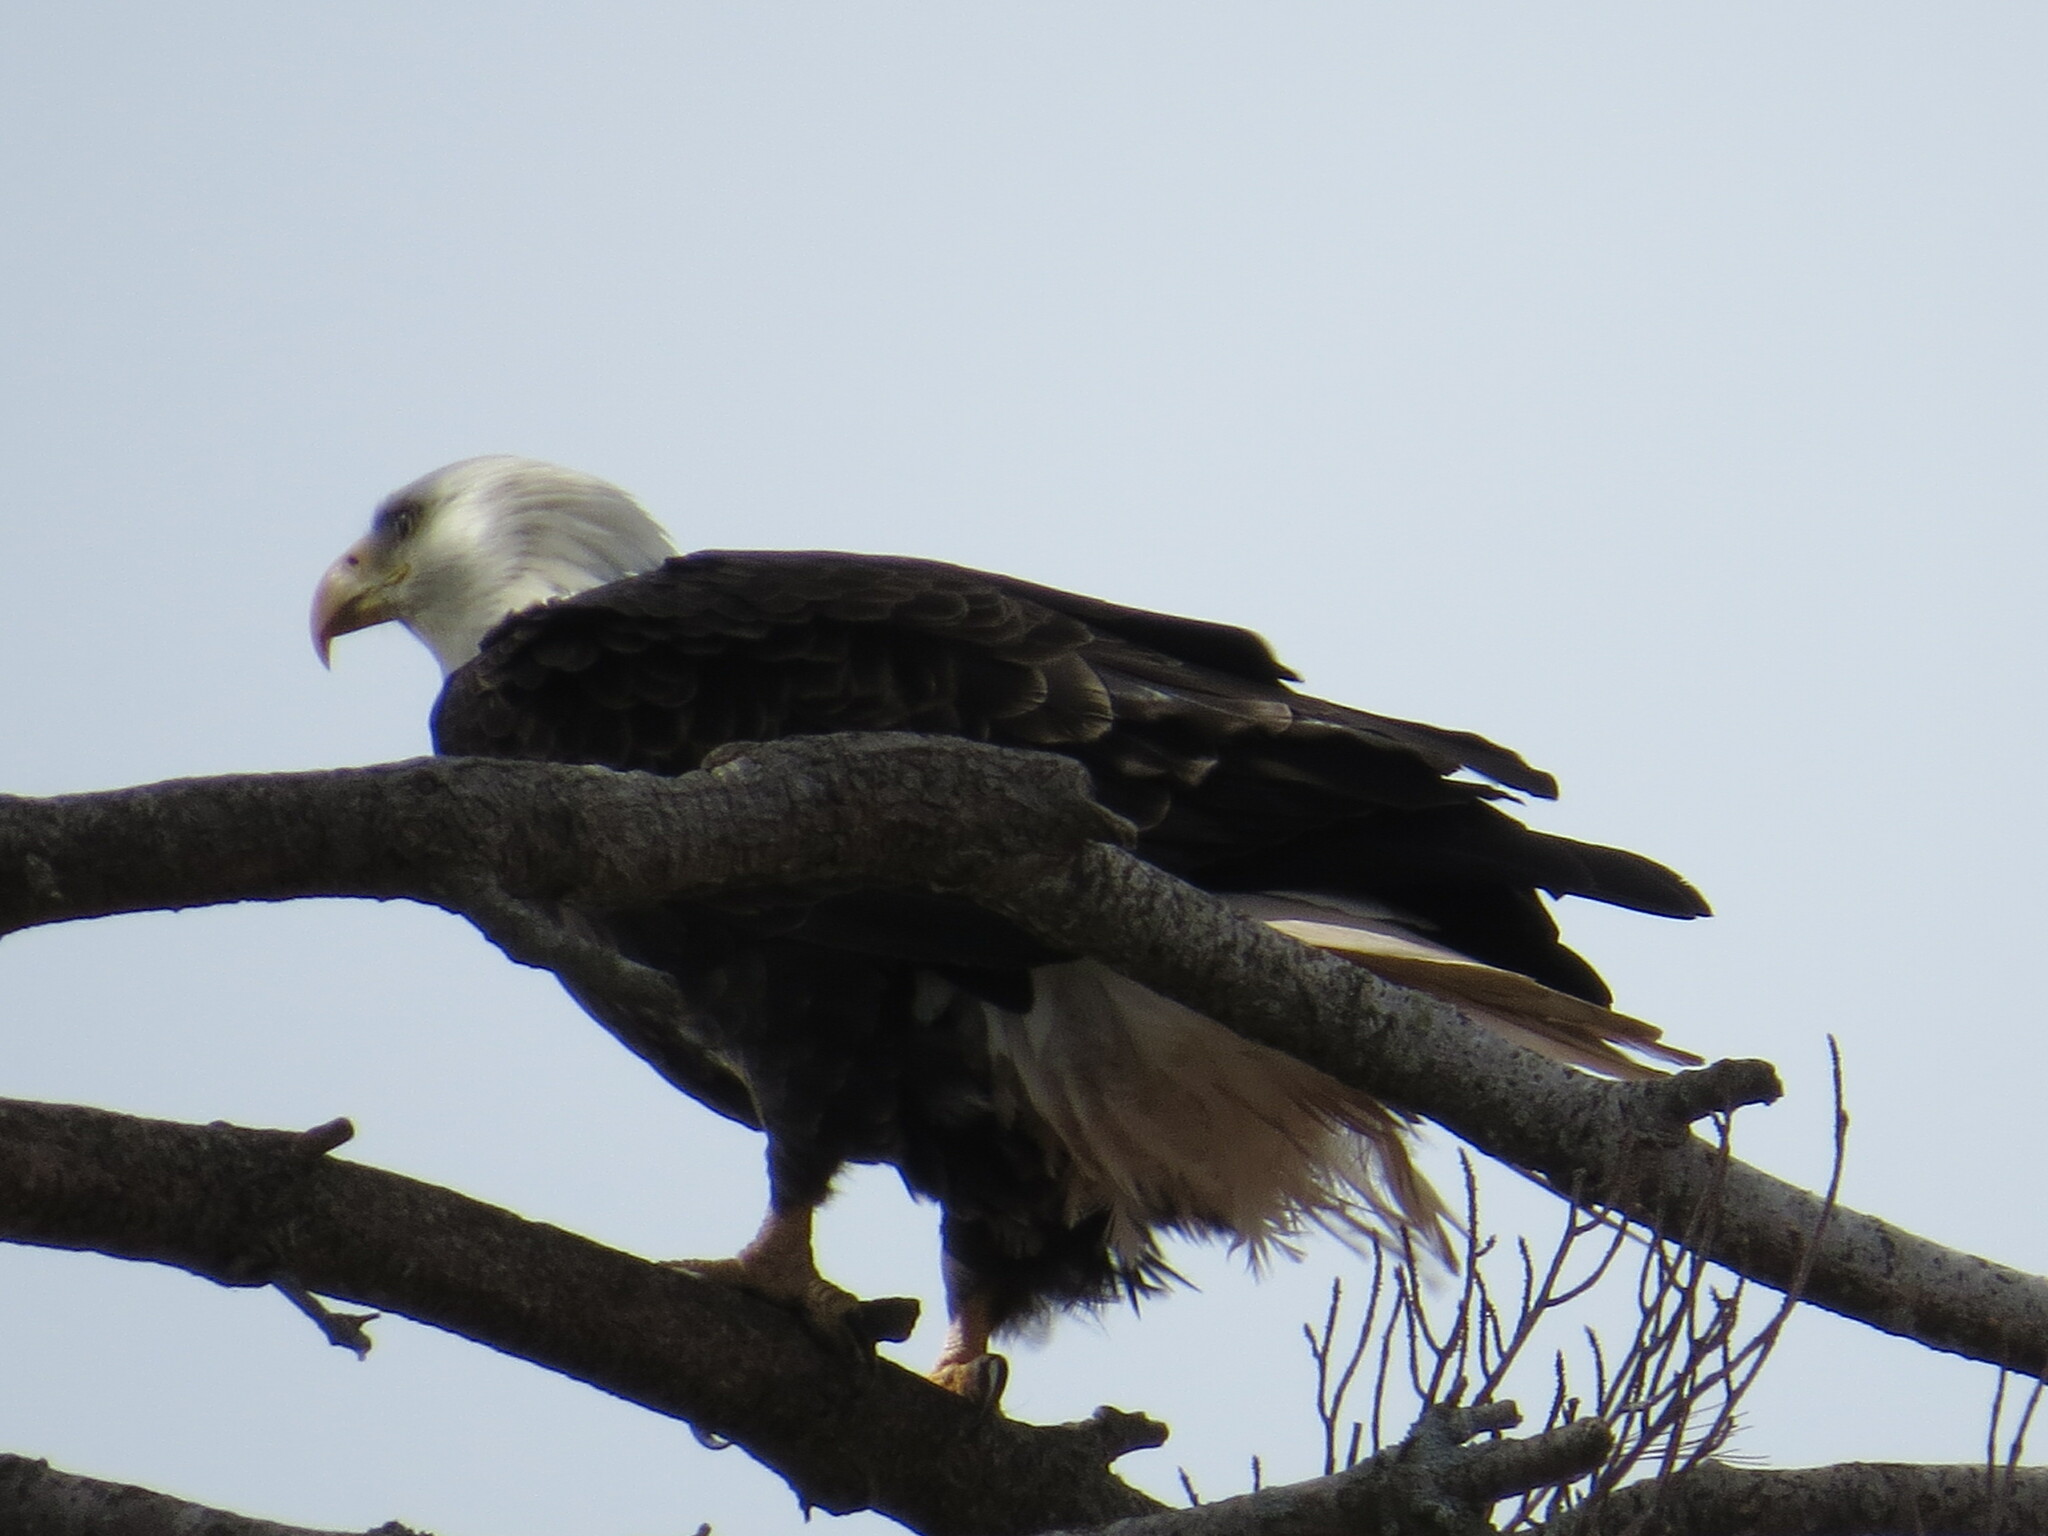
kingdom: Animalia
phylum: Chordata
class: Aves
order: Accipitriformes
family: Accipitridae
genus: Haliaeetus
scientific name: Haliaeetus leucocephalus
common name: Bald eagle
